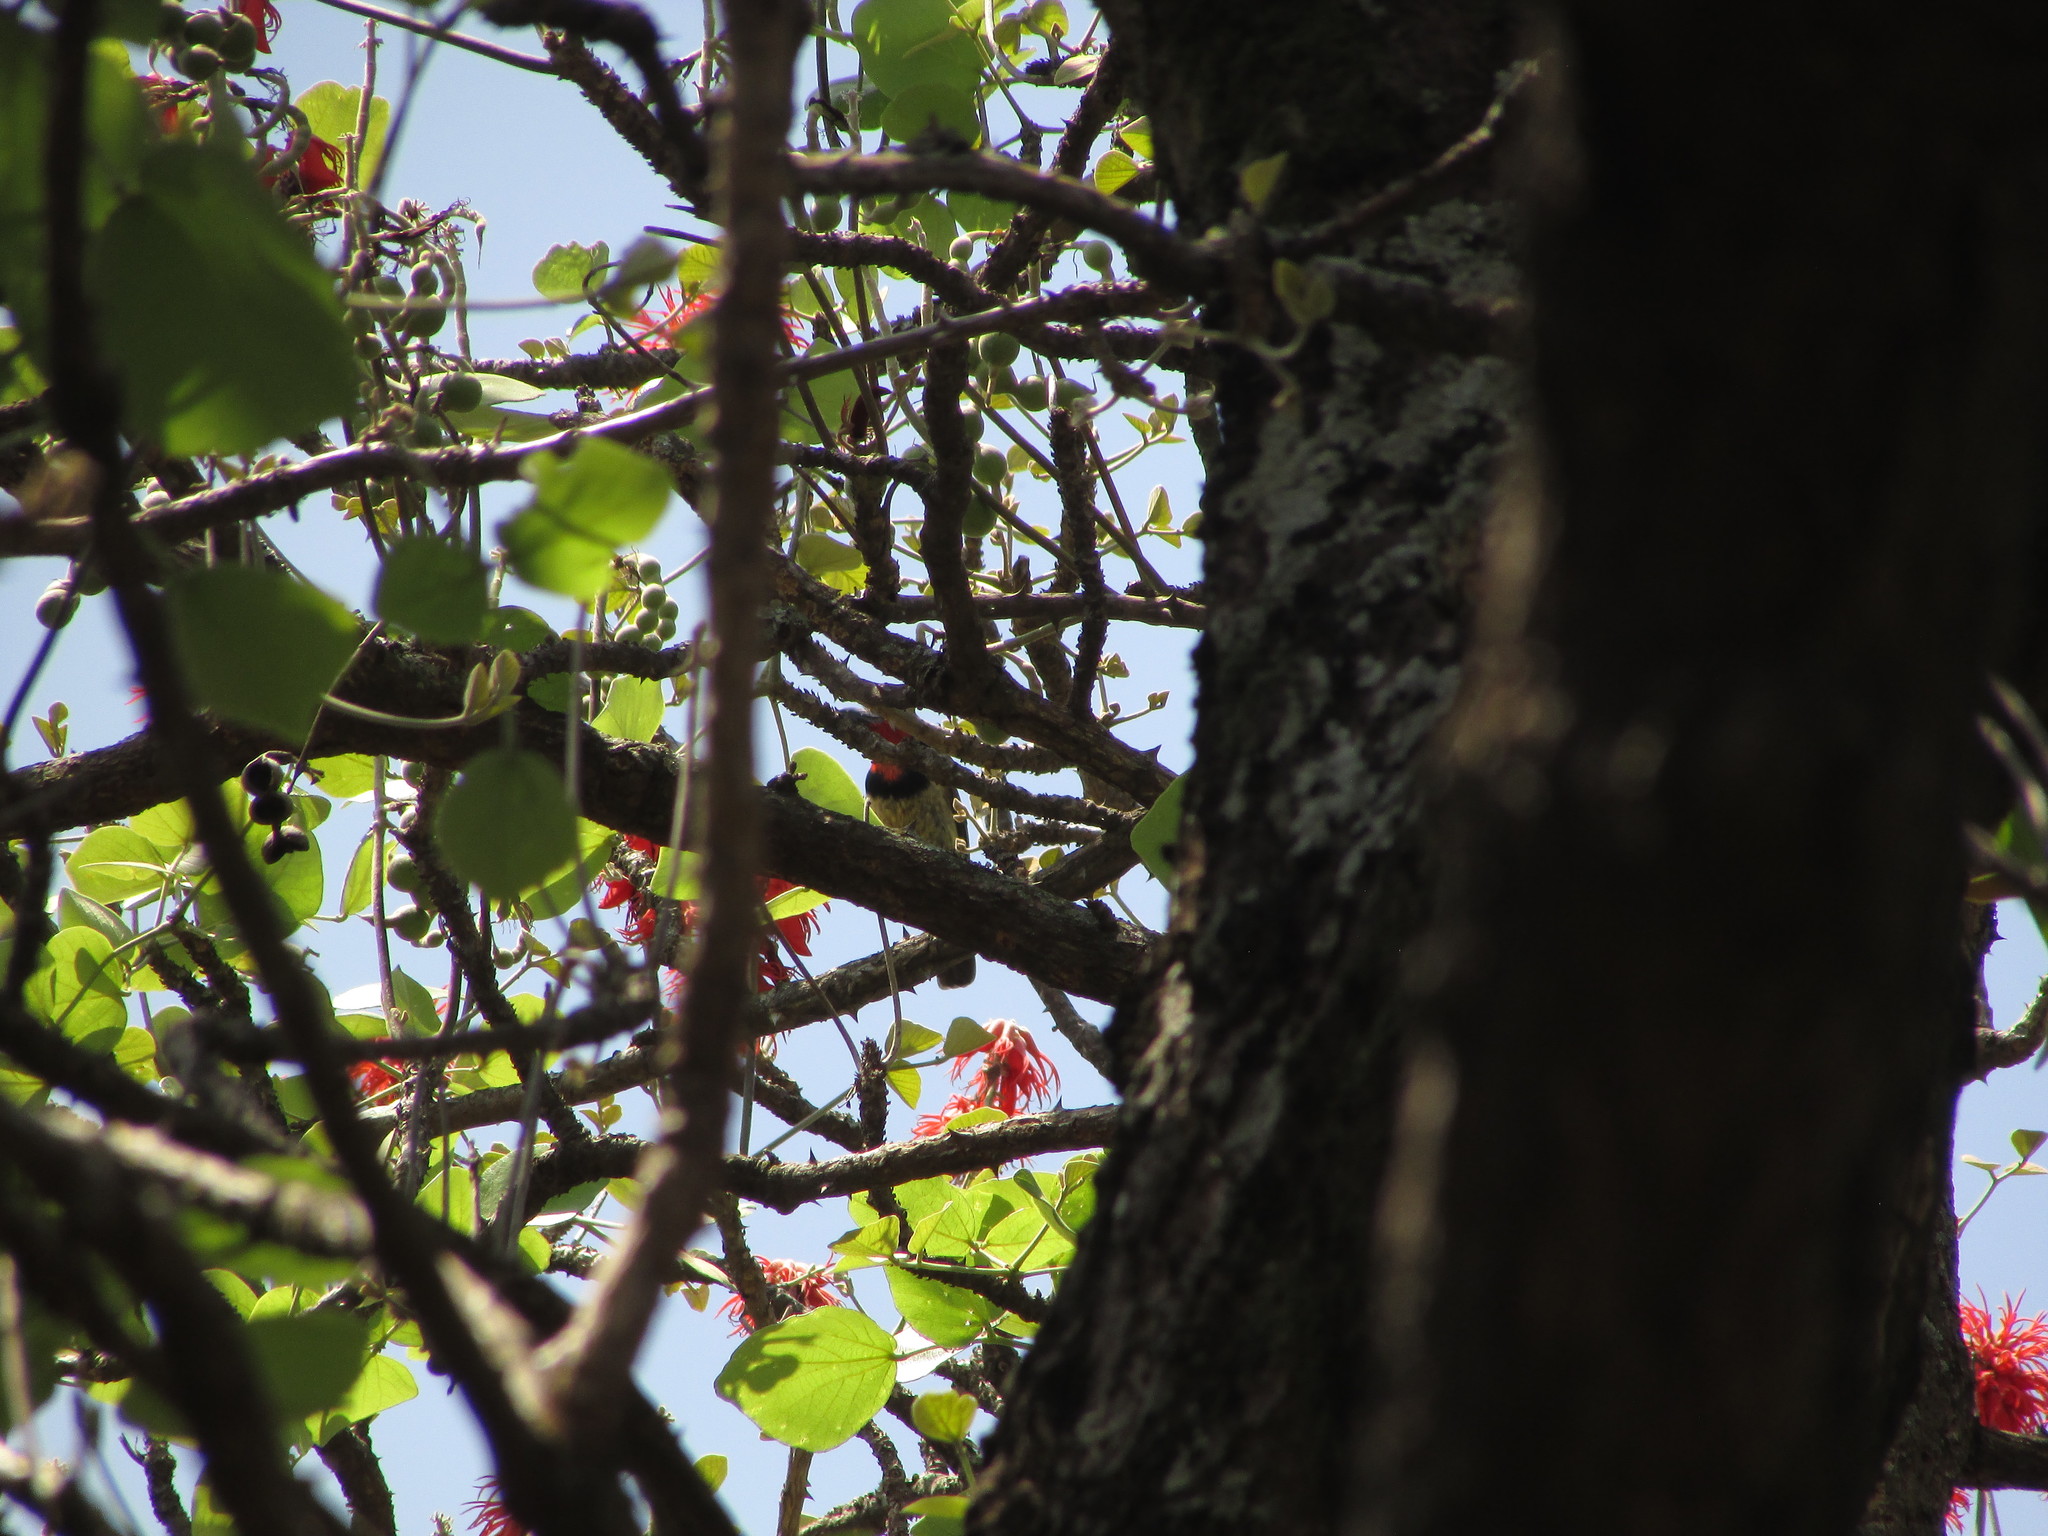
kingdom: Animalia
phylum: Chordata
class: Aves
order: Piciformes
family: Lybiidae
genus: Lybius
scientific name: Lybius torquatus
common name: Black-collared barbet
